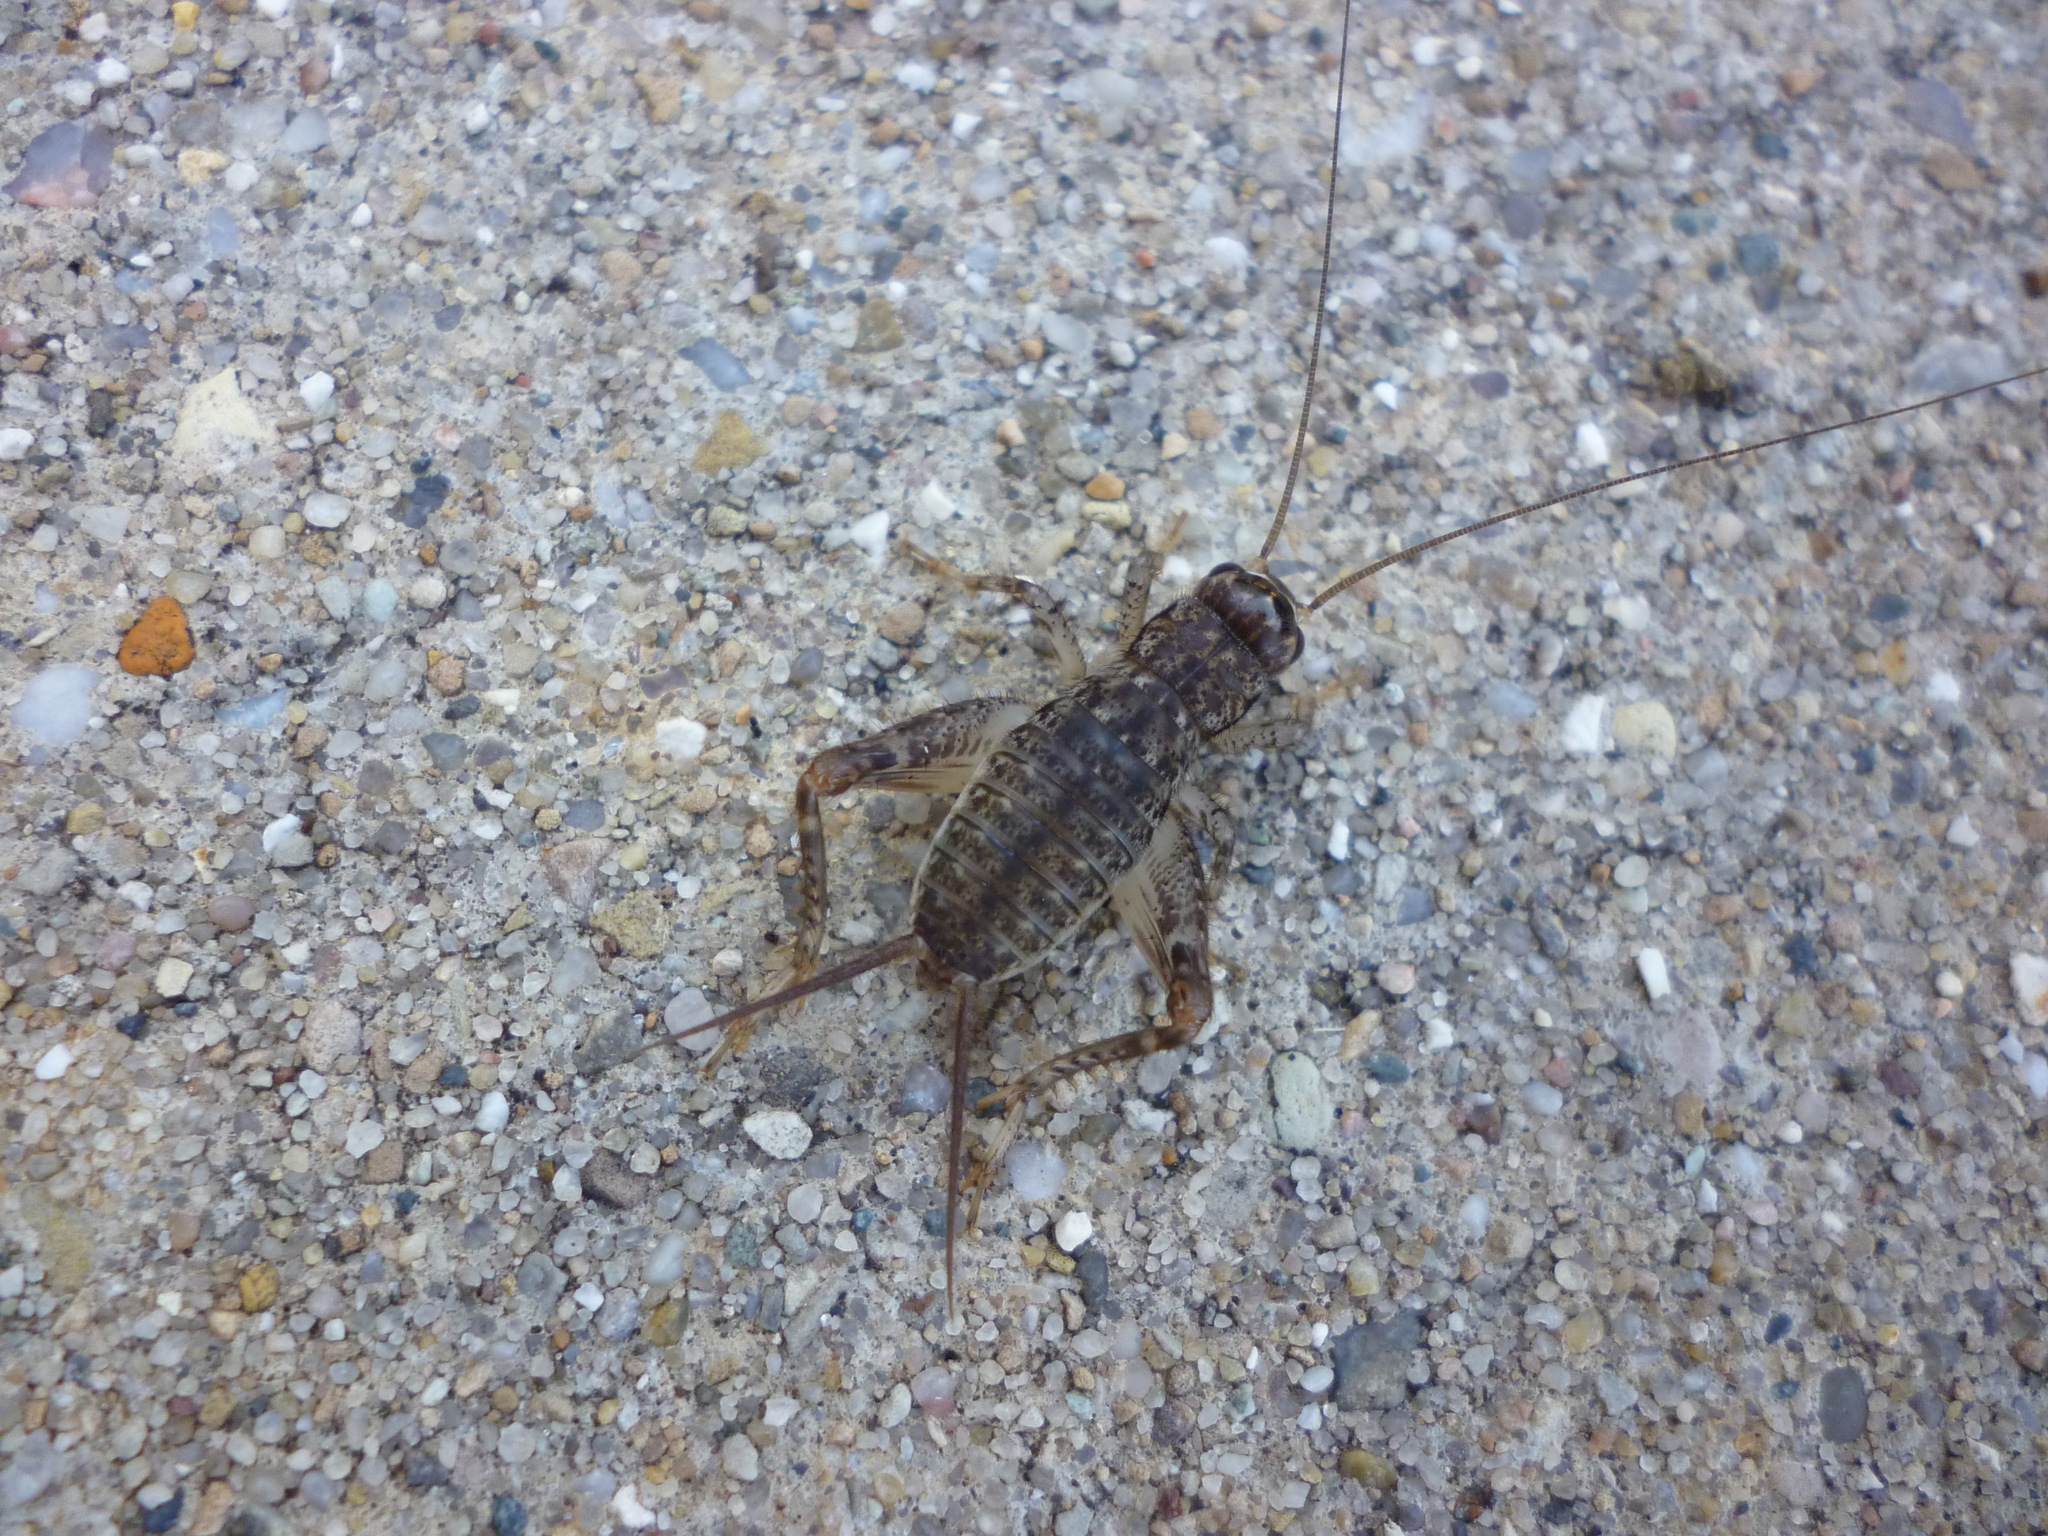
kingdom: Animalia
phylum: Arthropoda
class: Insecta
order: Orthoptera
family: Gryllidae
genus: Velarifictorus
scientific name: Velarifictorus micado
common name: Japanese burrowing cricket
